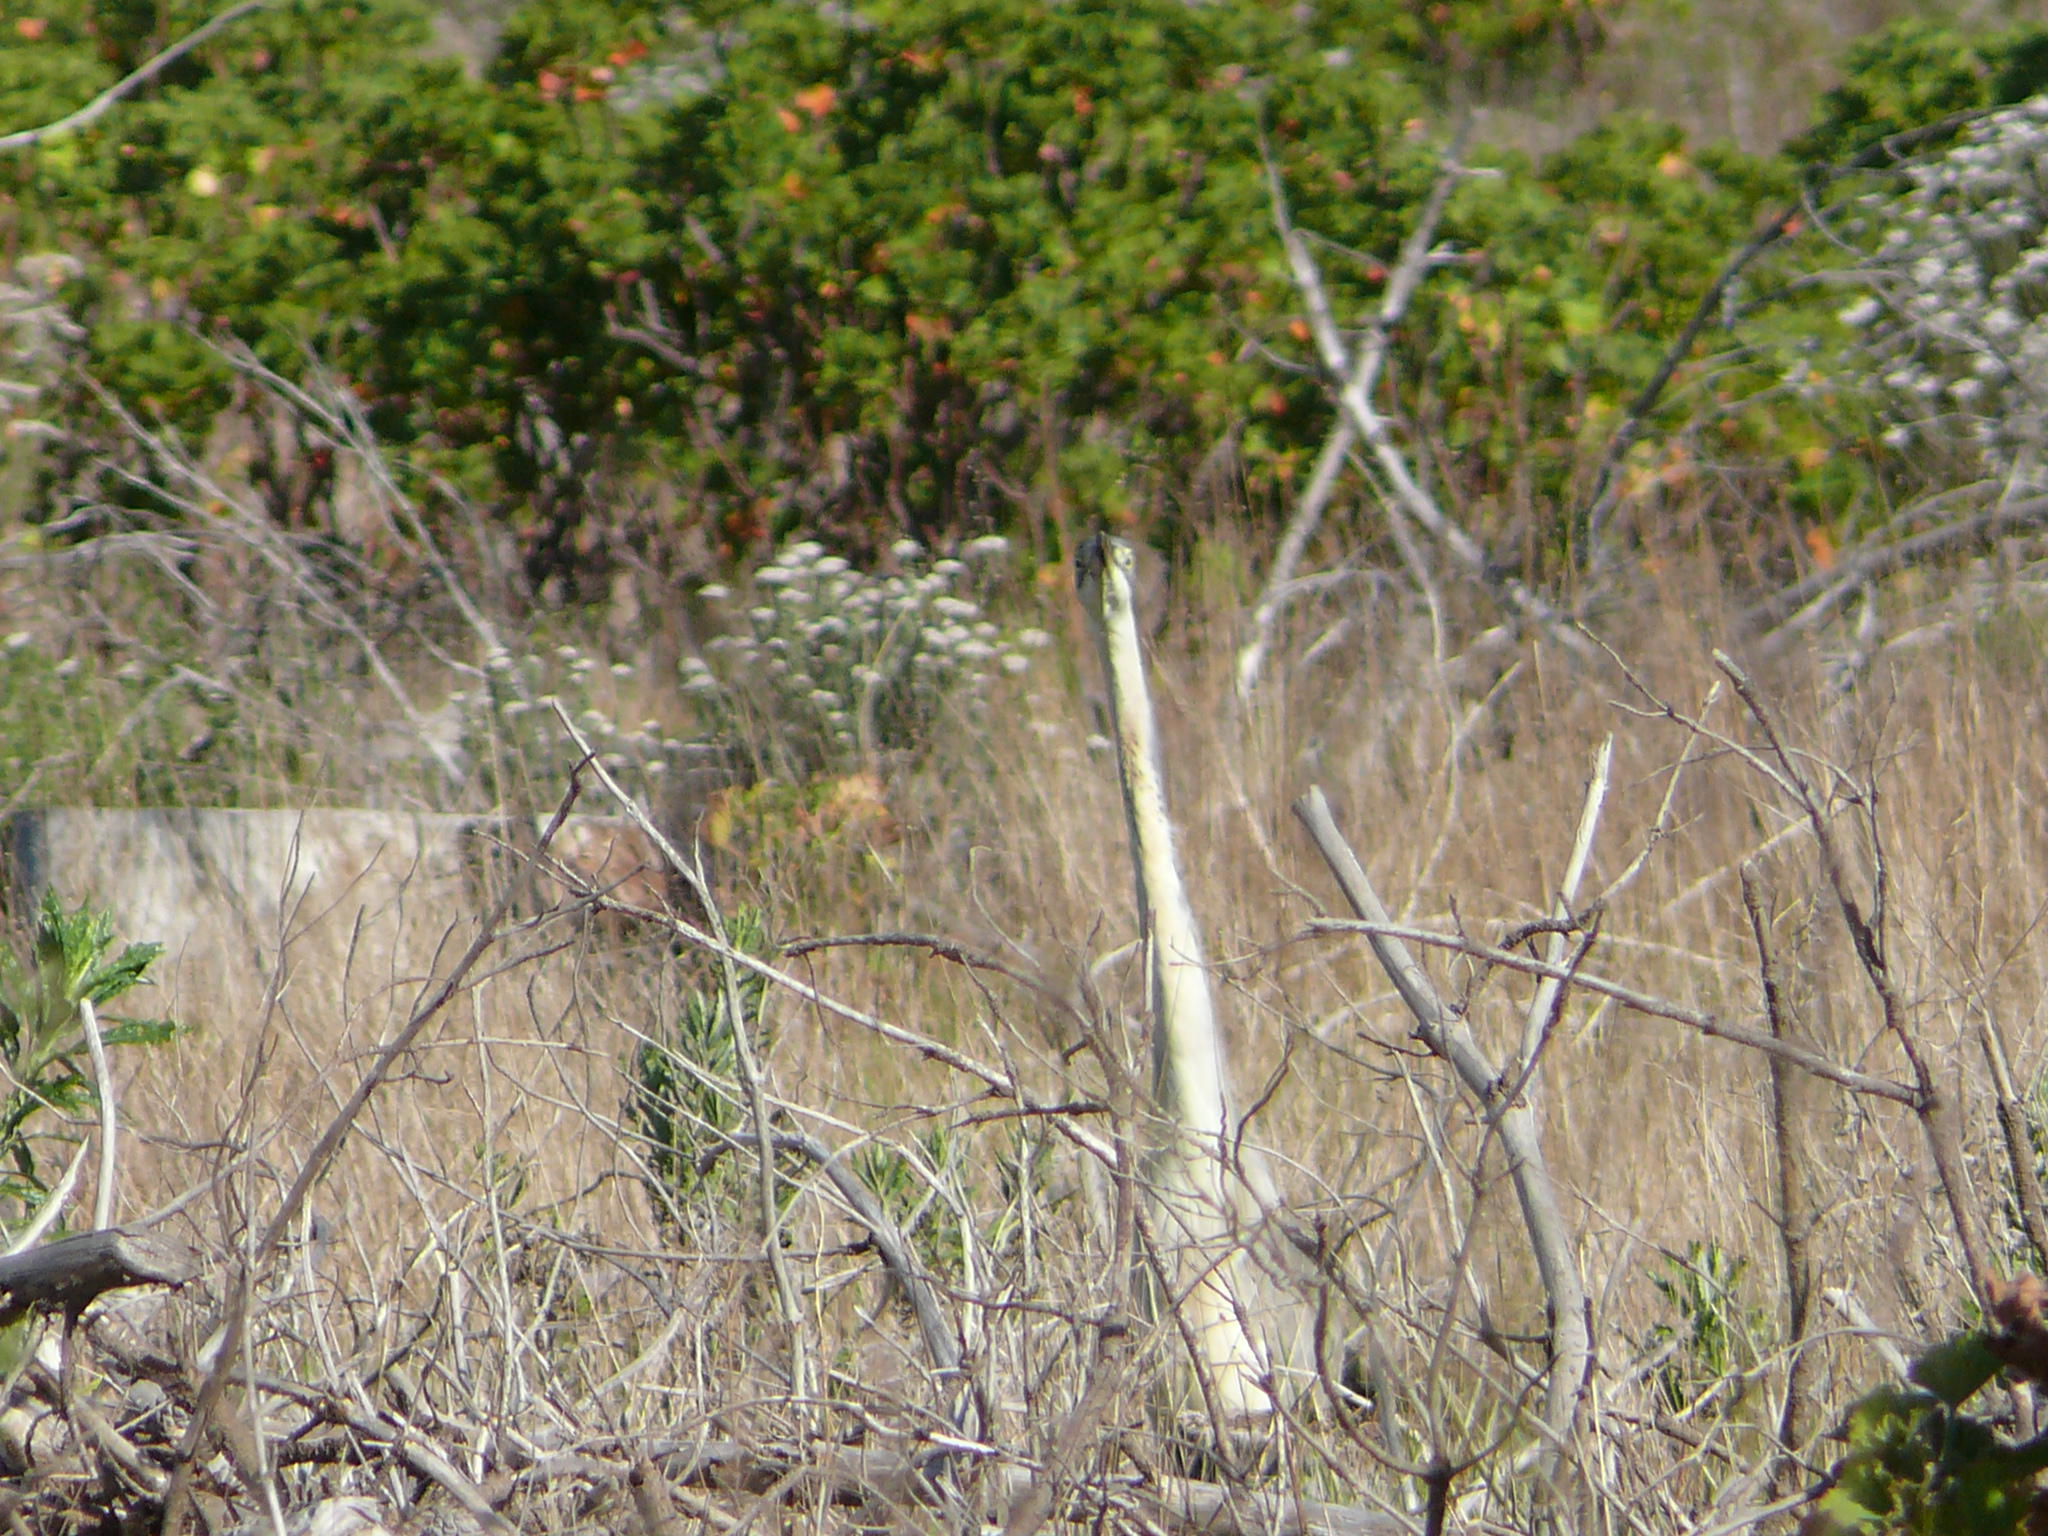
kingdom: Animalia
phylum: Chordata
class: Aves
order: Pelecaniformes
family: Ardeidae
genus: Ardea
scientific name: Ardea melanocephala
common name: Black-headed heron
